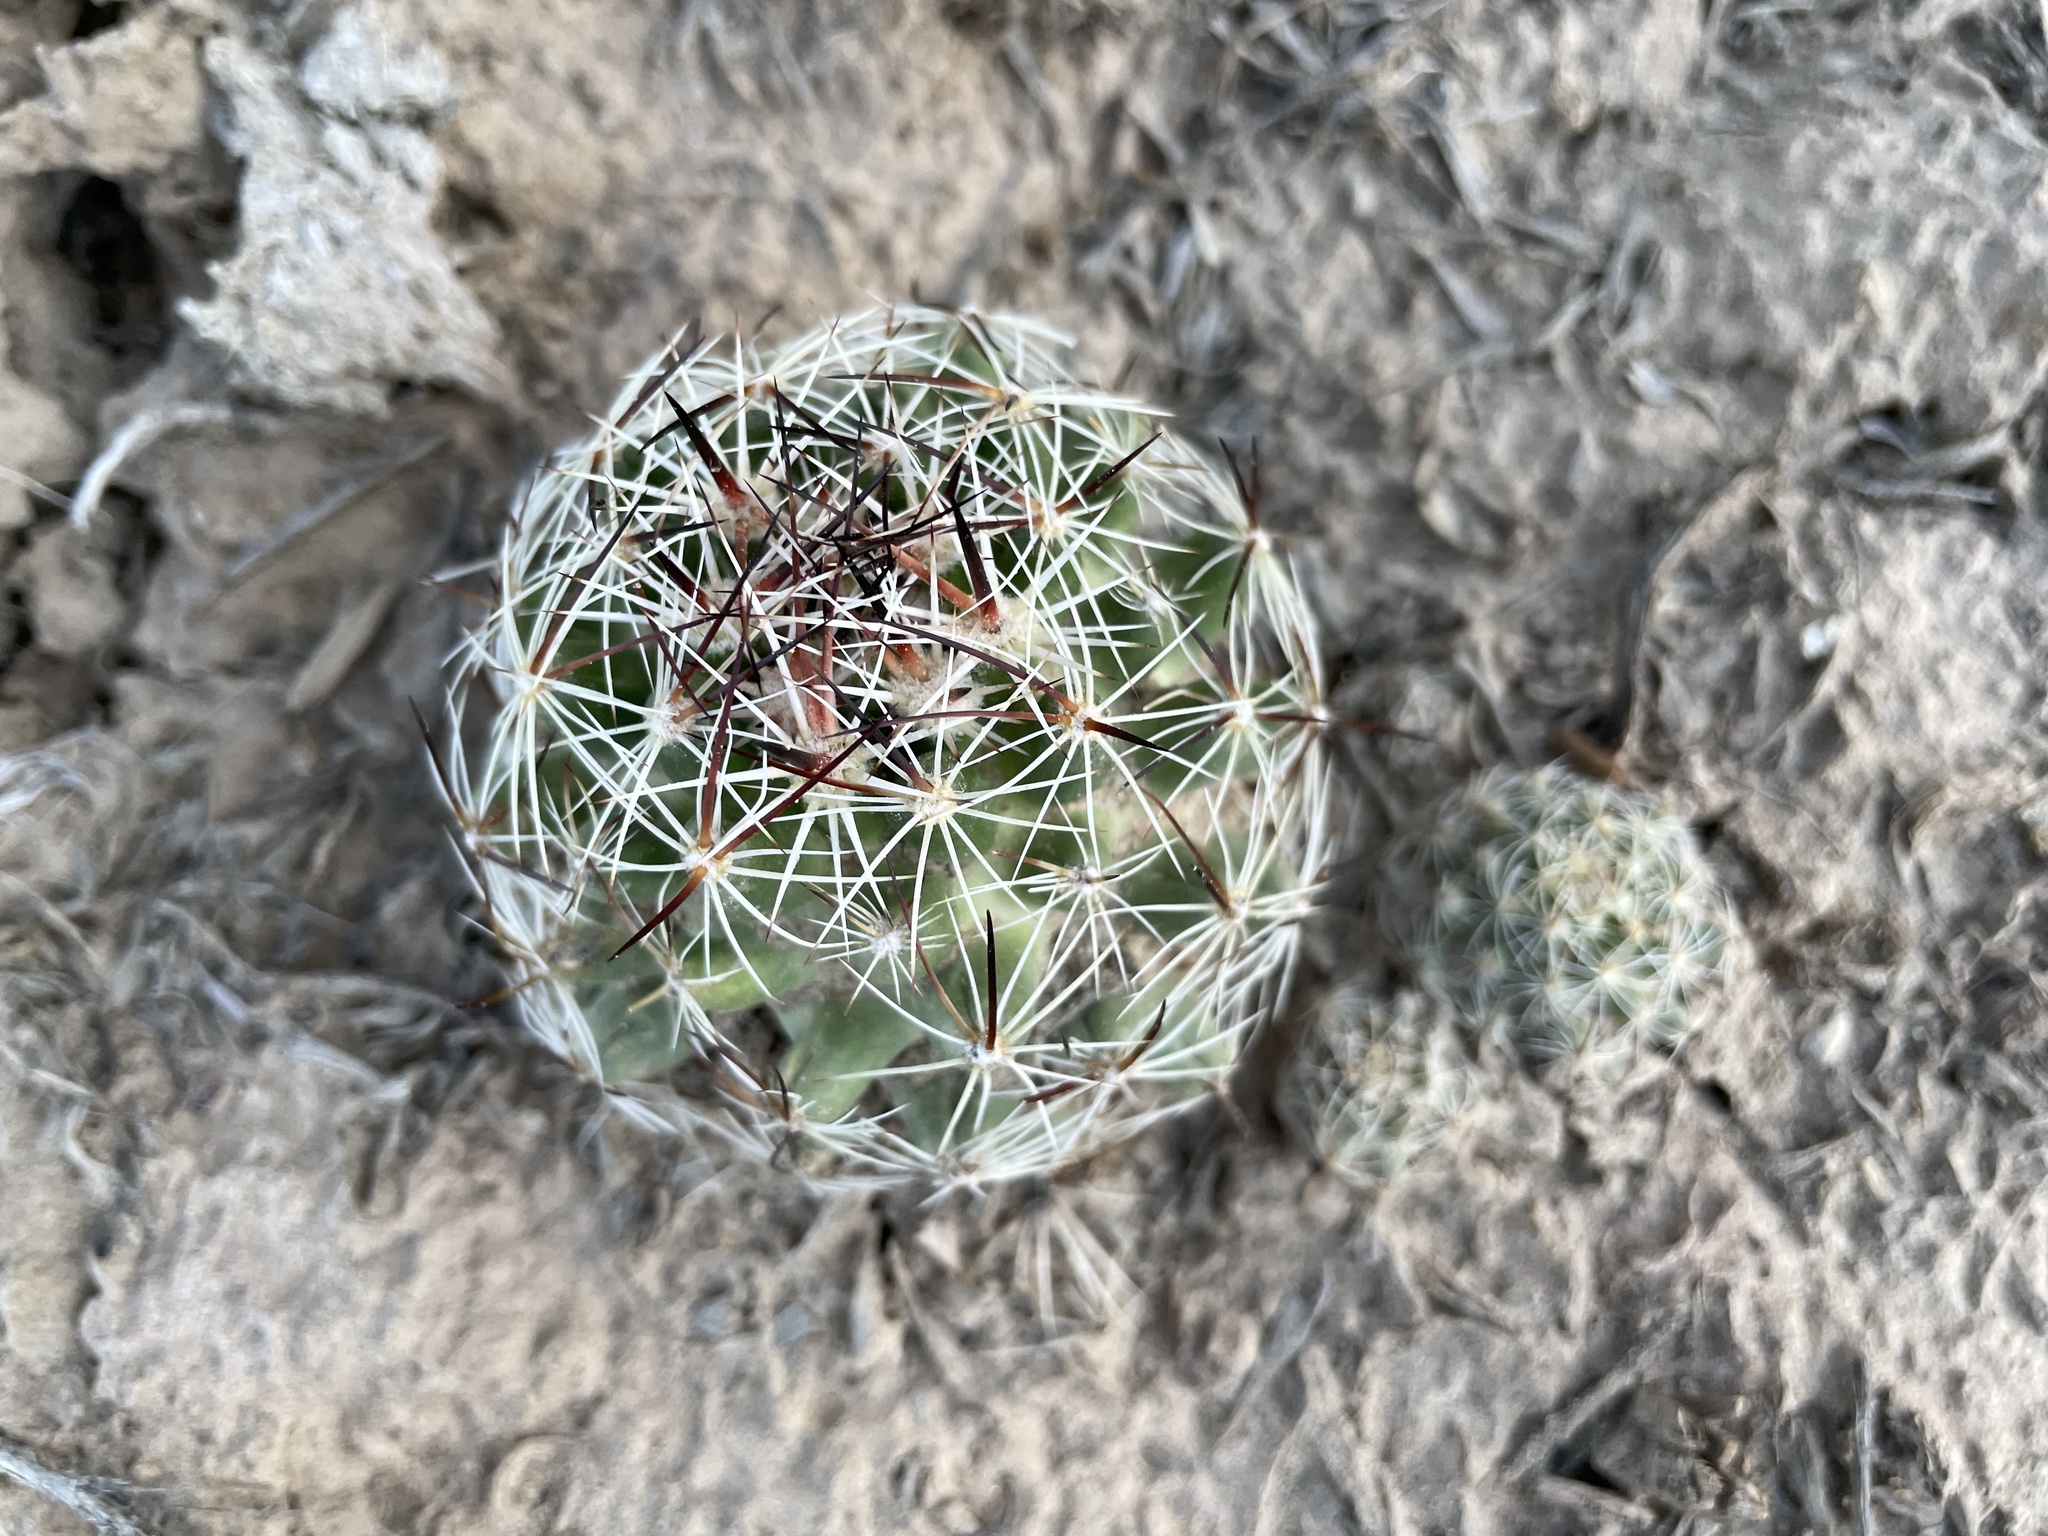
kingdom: Plantae
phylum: Tracheophyta
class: Magnoliopsida
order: Caryophyllales
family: Cactaceae
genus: Pelecyphora
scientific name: Pelecyphora vivipara
